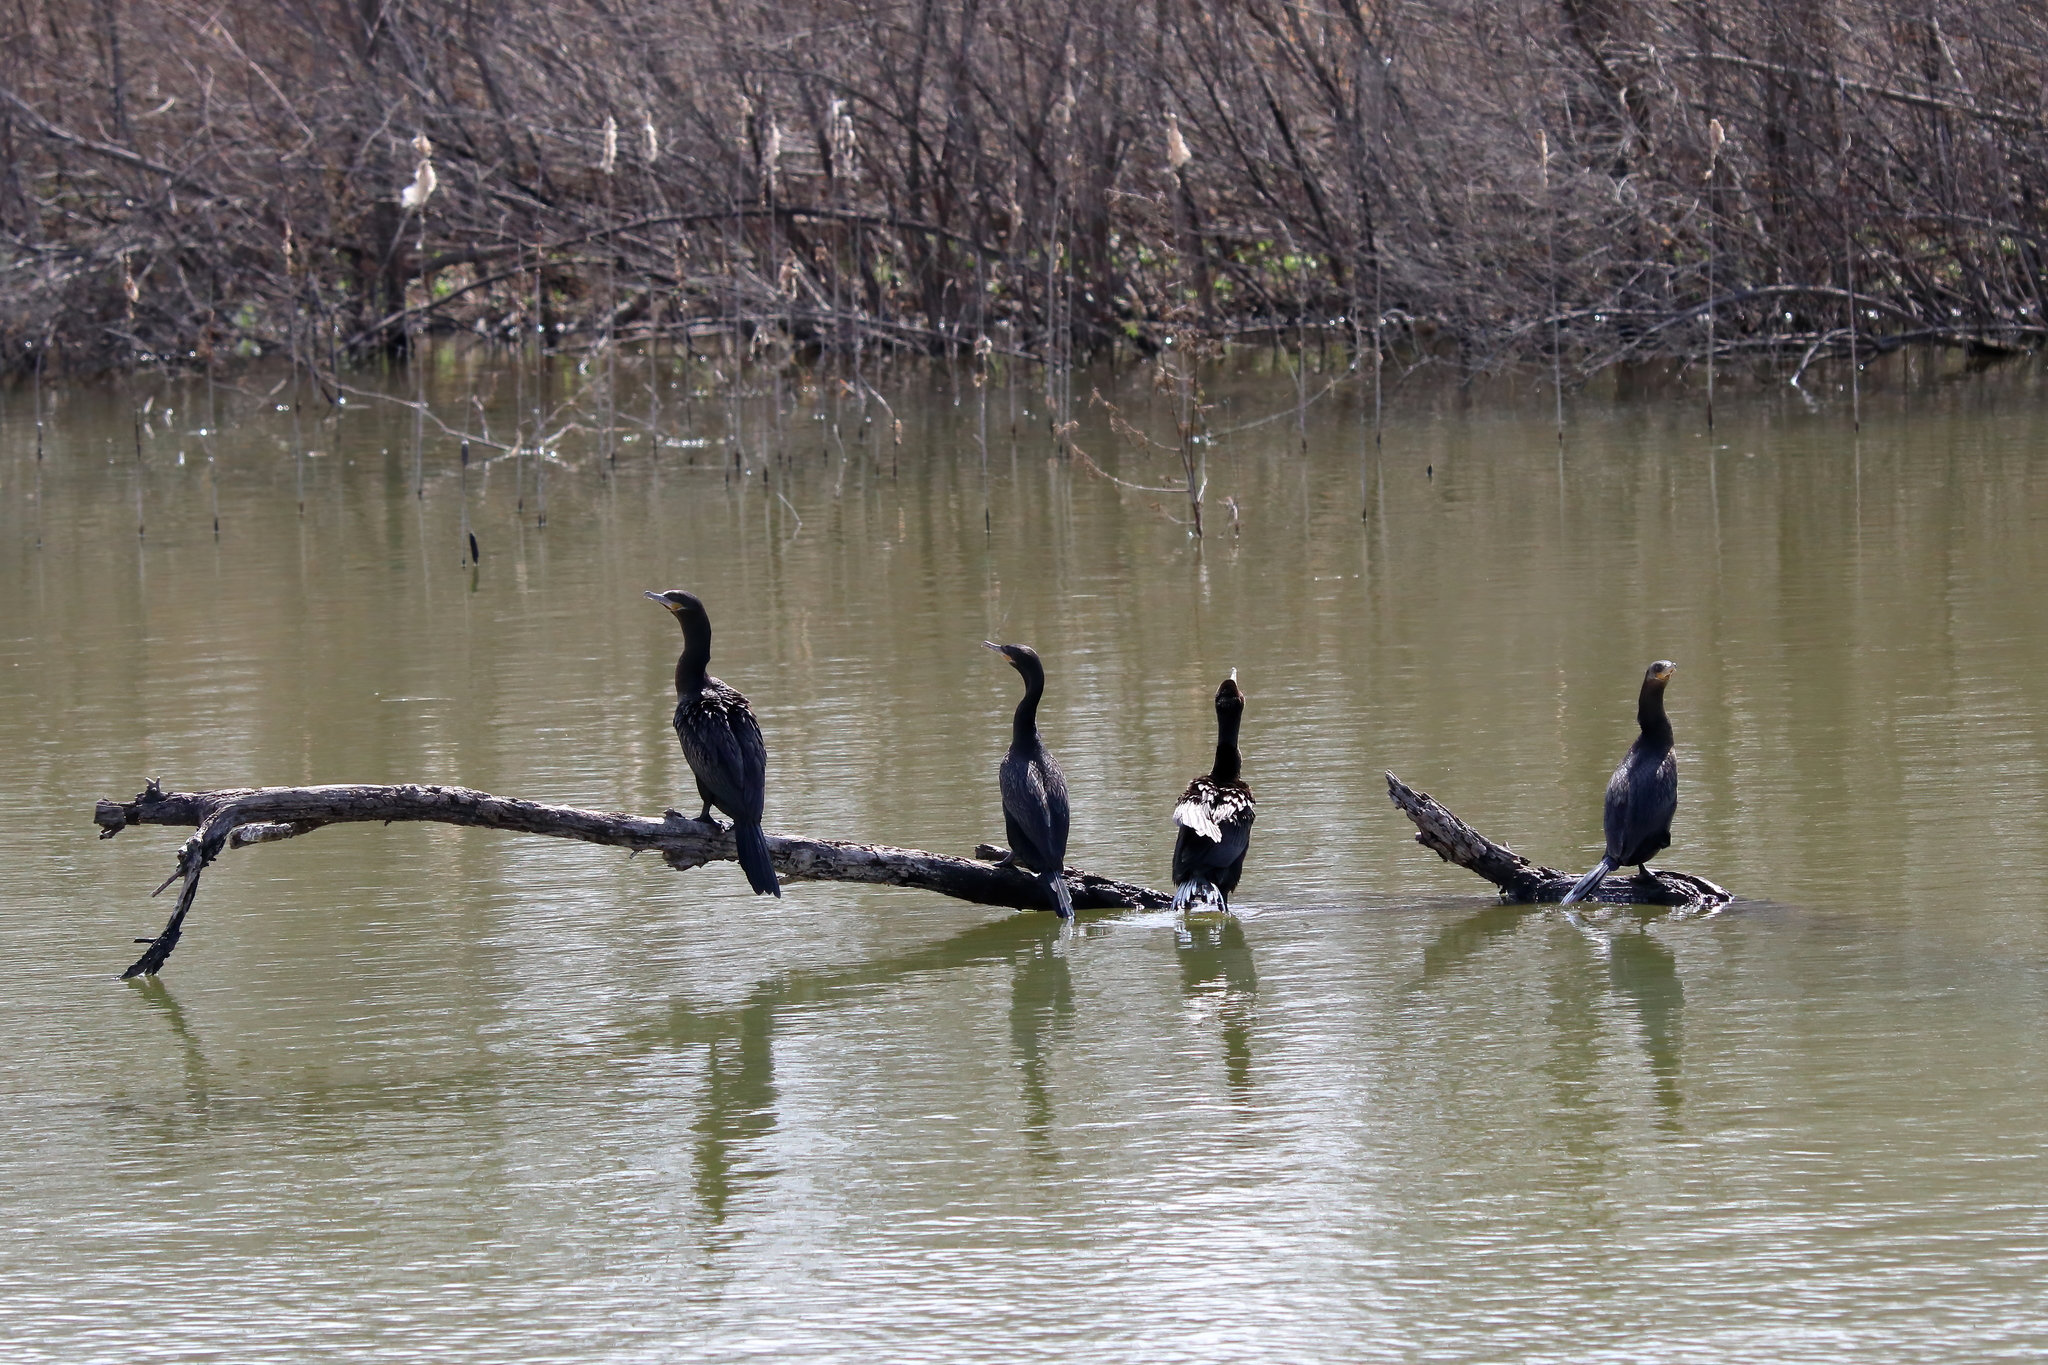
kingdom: Animalia
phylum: Chordata
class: Aves
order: Suliformes
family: Phalacrocoracidae
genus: Phalacrocorax
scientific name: Phalacrocorax brasilianus
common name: Neotropic cormorant
